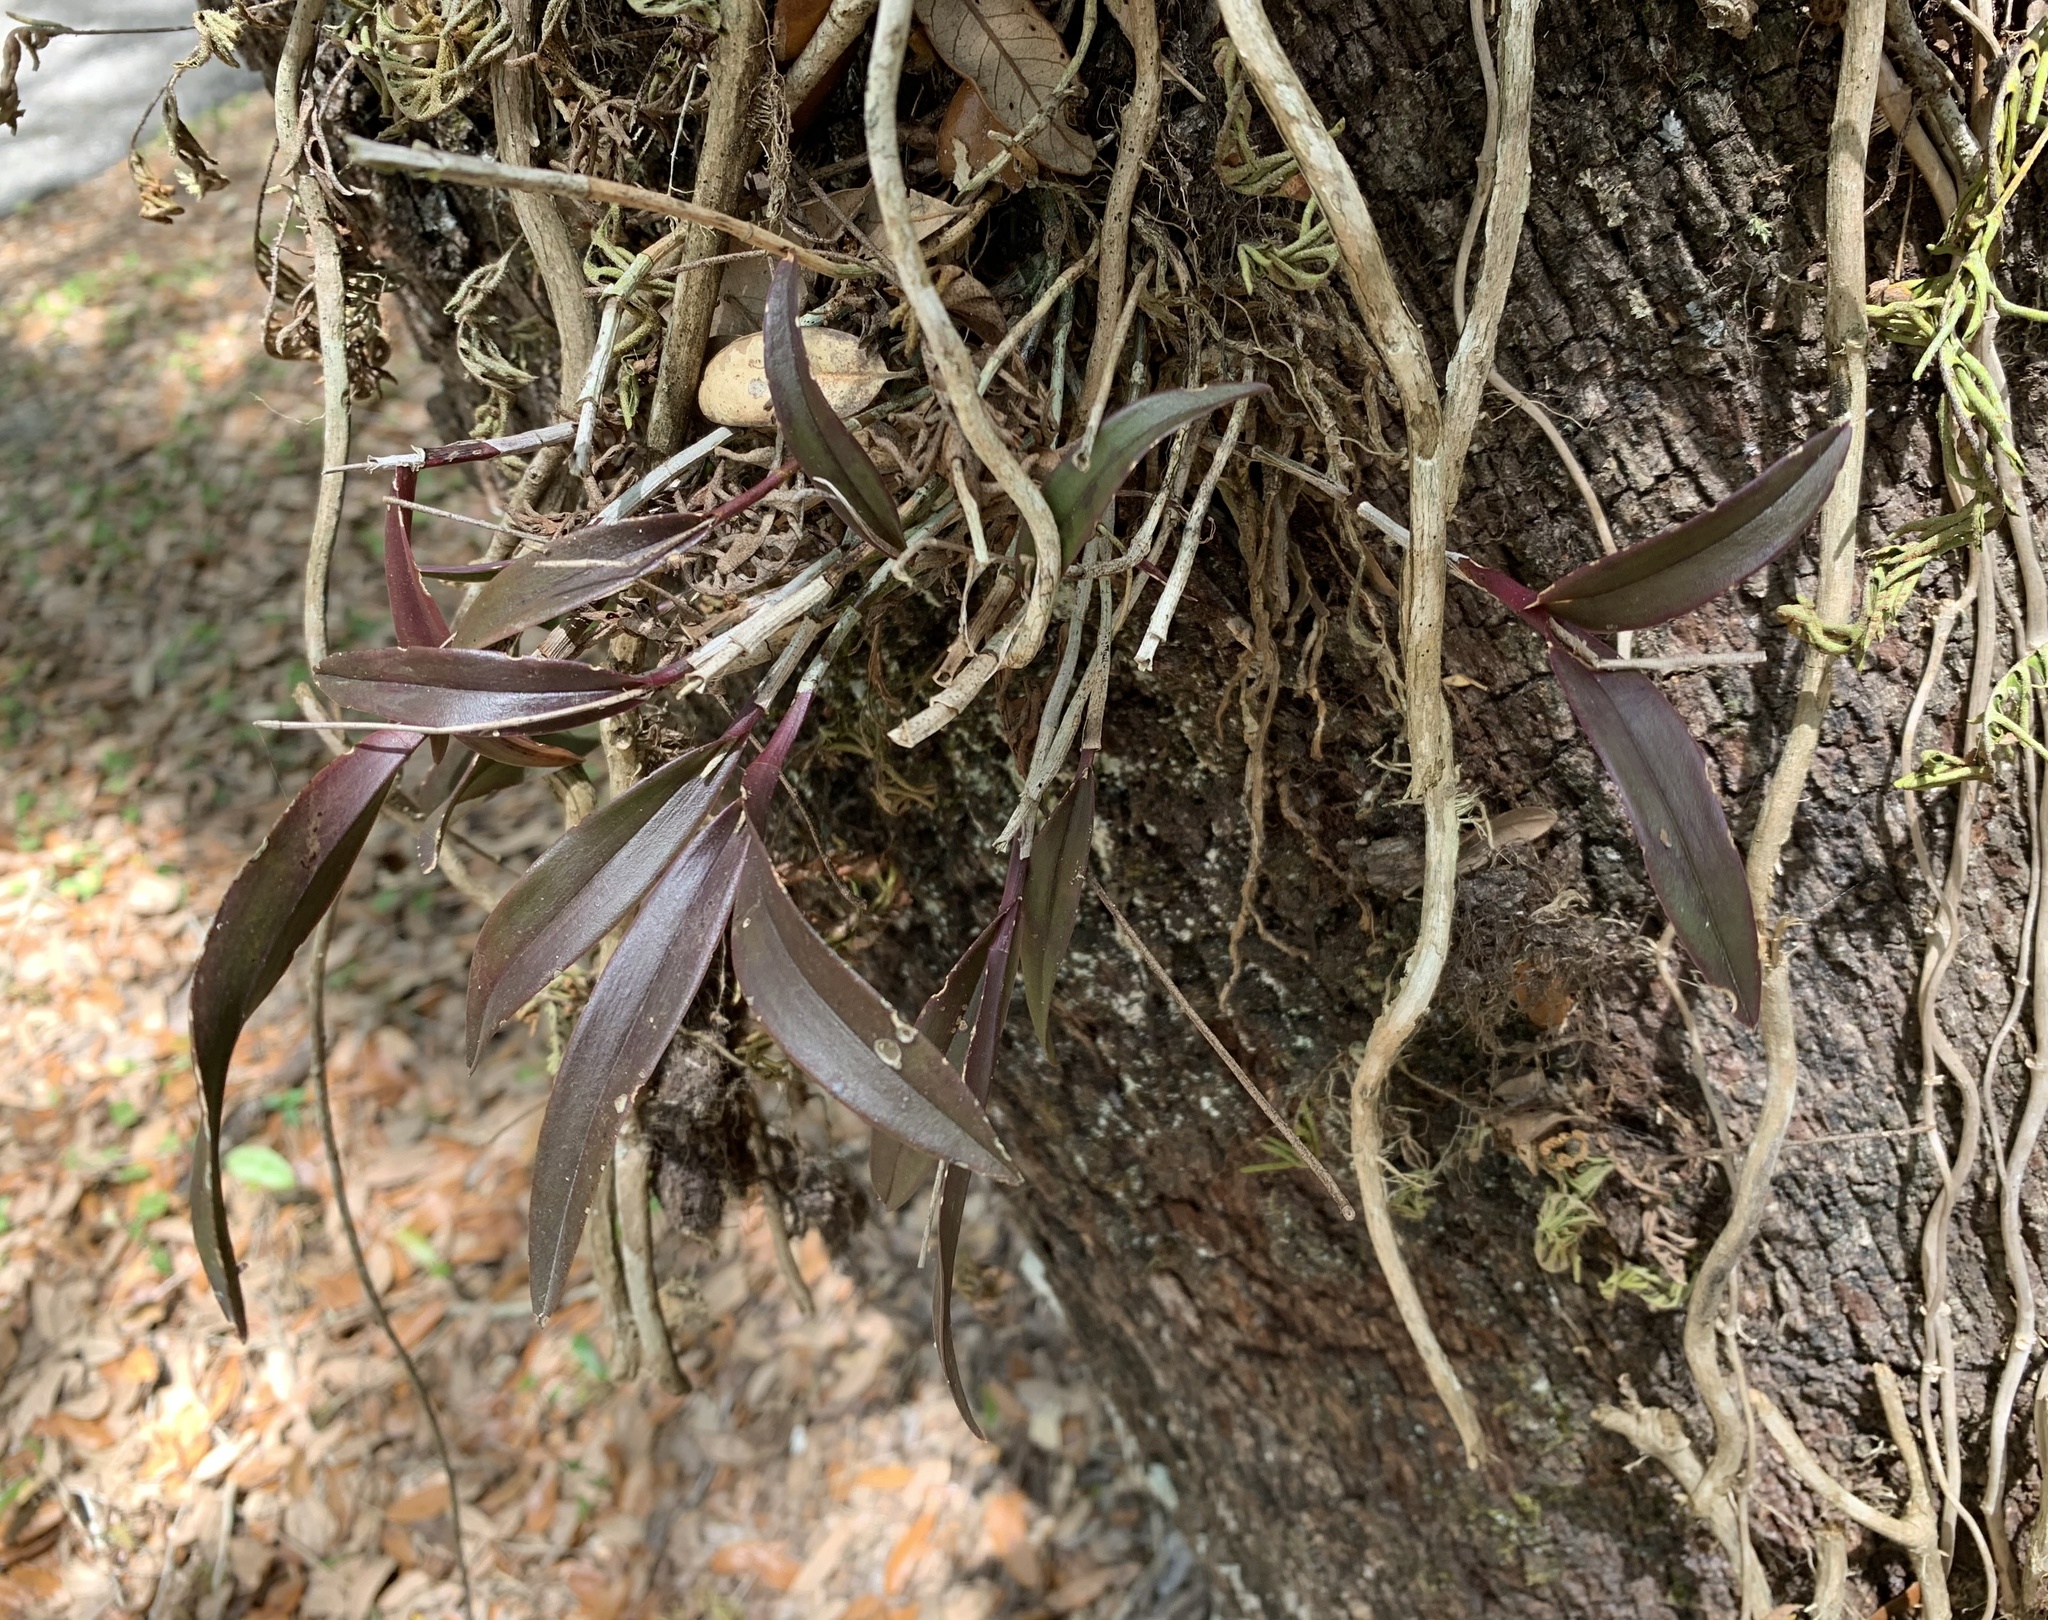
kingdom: Plantae
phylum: Tracheophyta
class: Liliopsida
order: Asparagales
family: Orchidaceae
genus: Epidendrum
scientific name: Epidendrum conopseum
